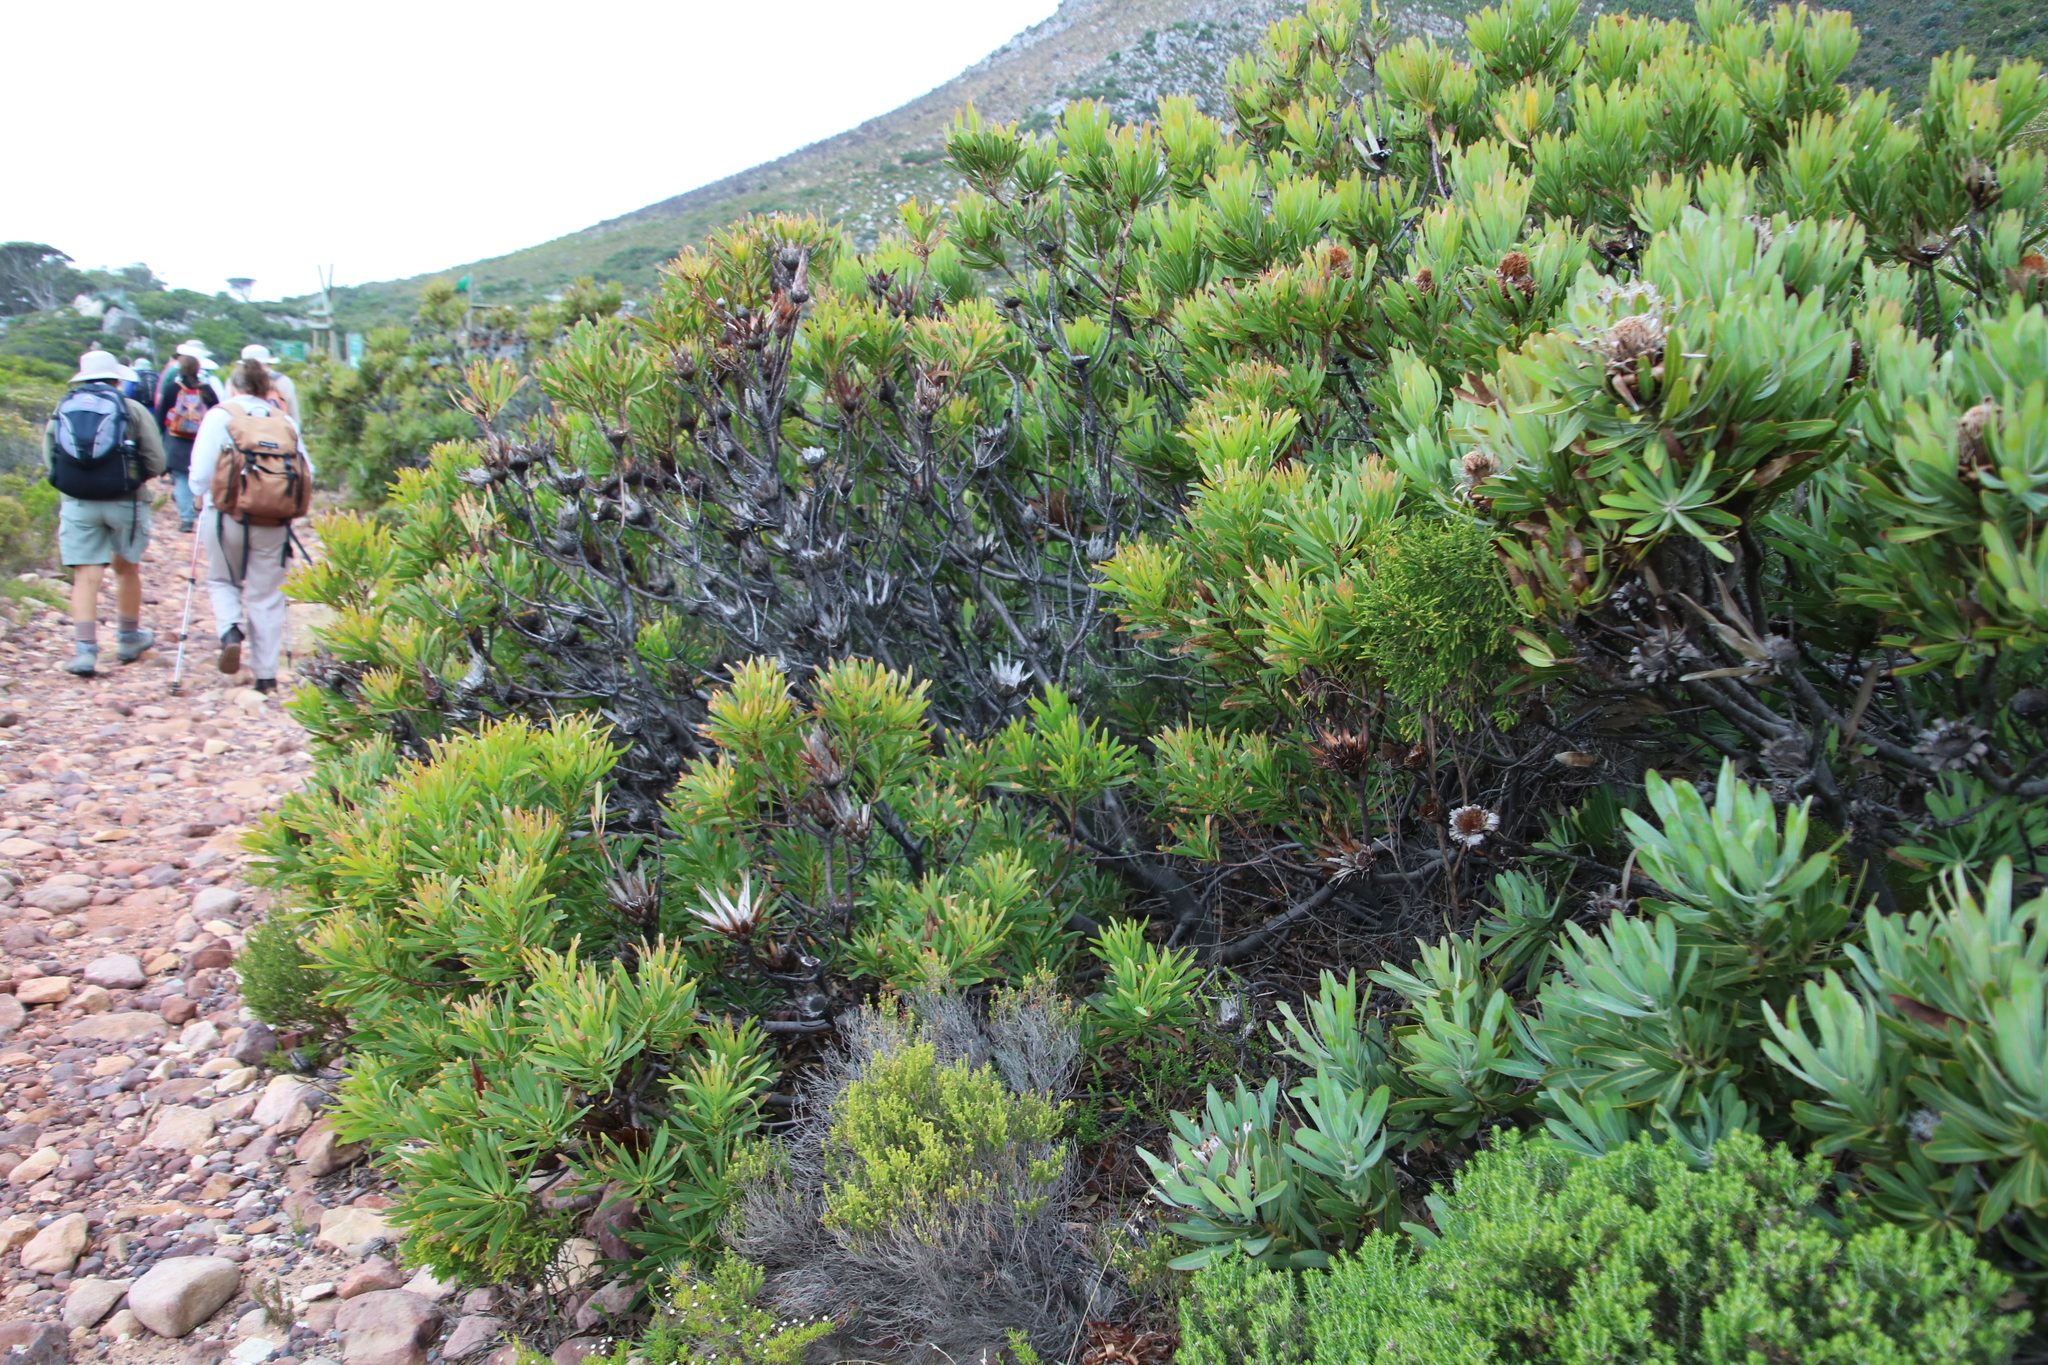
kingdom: Plantae
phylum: Tracheophyta
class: Magnoliopsida
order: Proteales
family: Proteaceae
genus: Protea
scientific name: Protea repens
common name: Sugarbush
